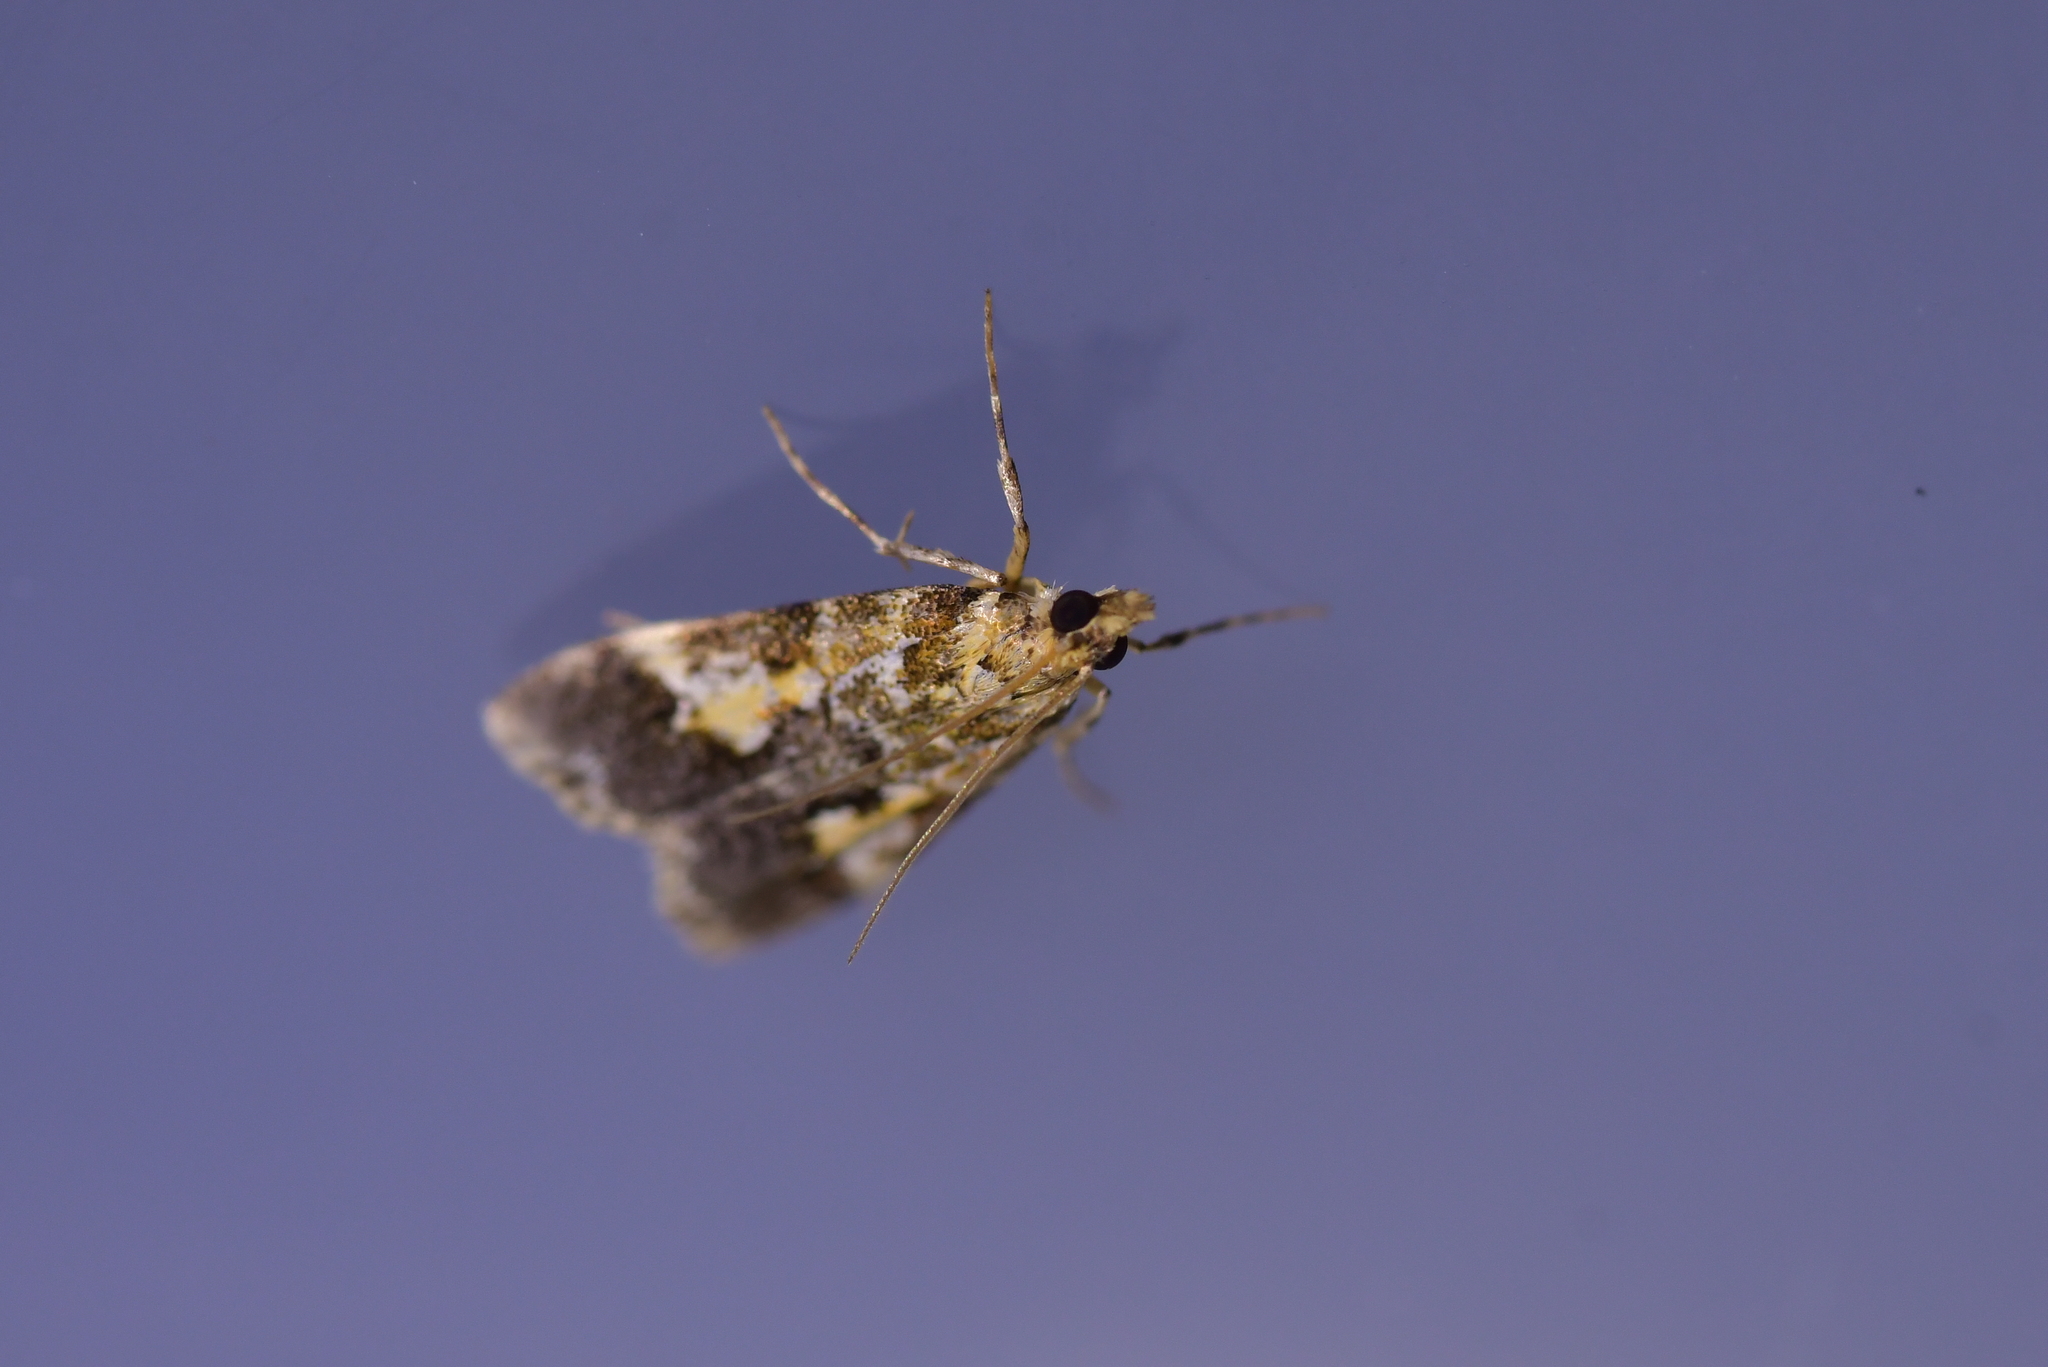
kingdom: Animalia
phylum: Arthropoda
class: Insecta
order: Lepidoptera
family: Crambidae
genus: Eudonia
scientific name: Eudonia characta
